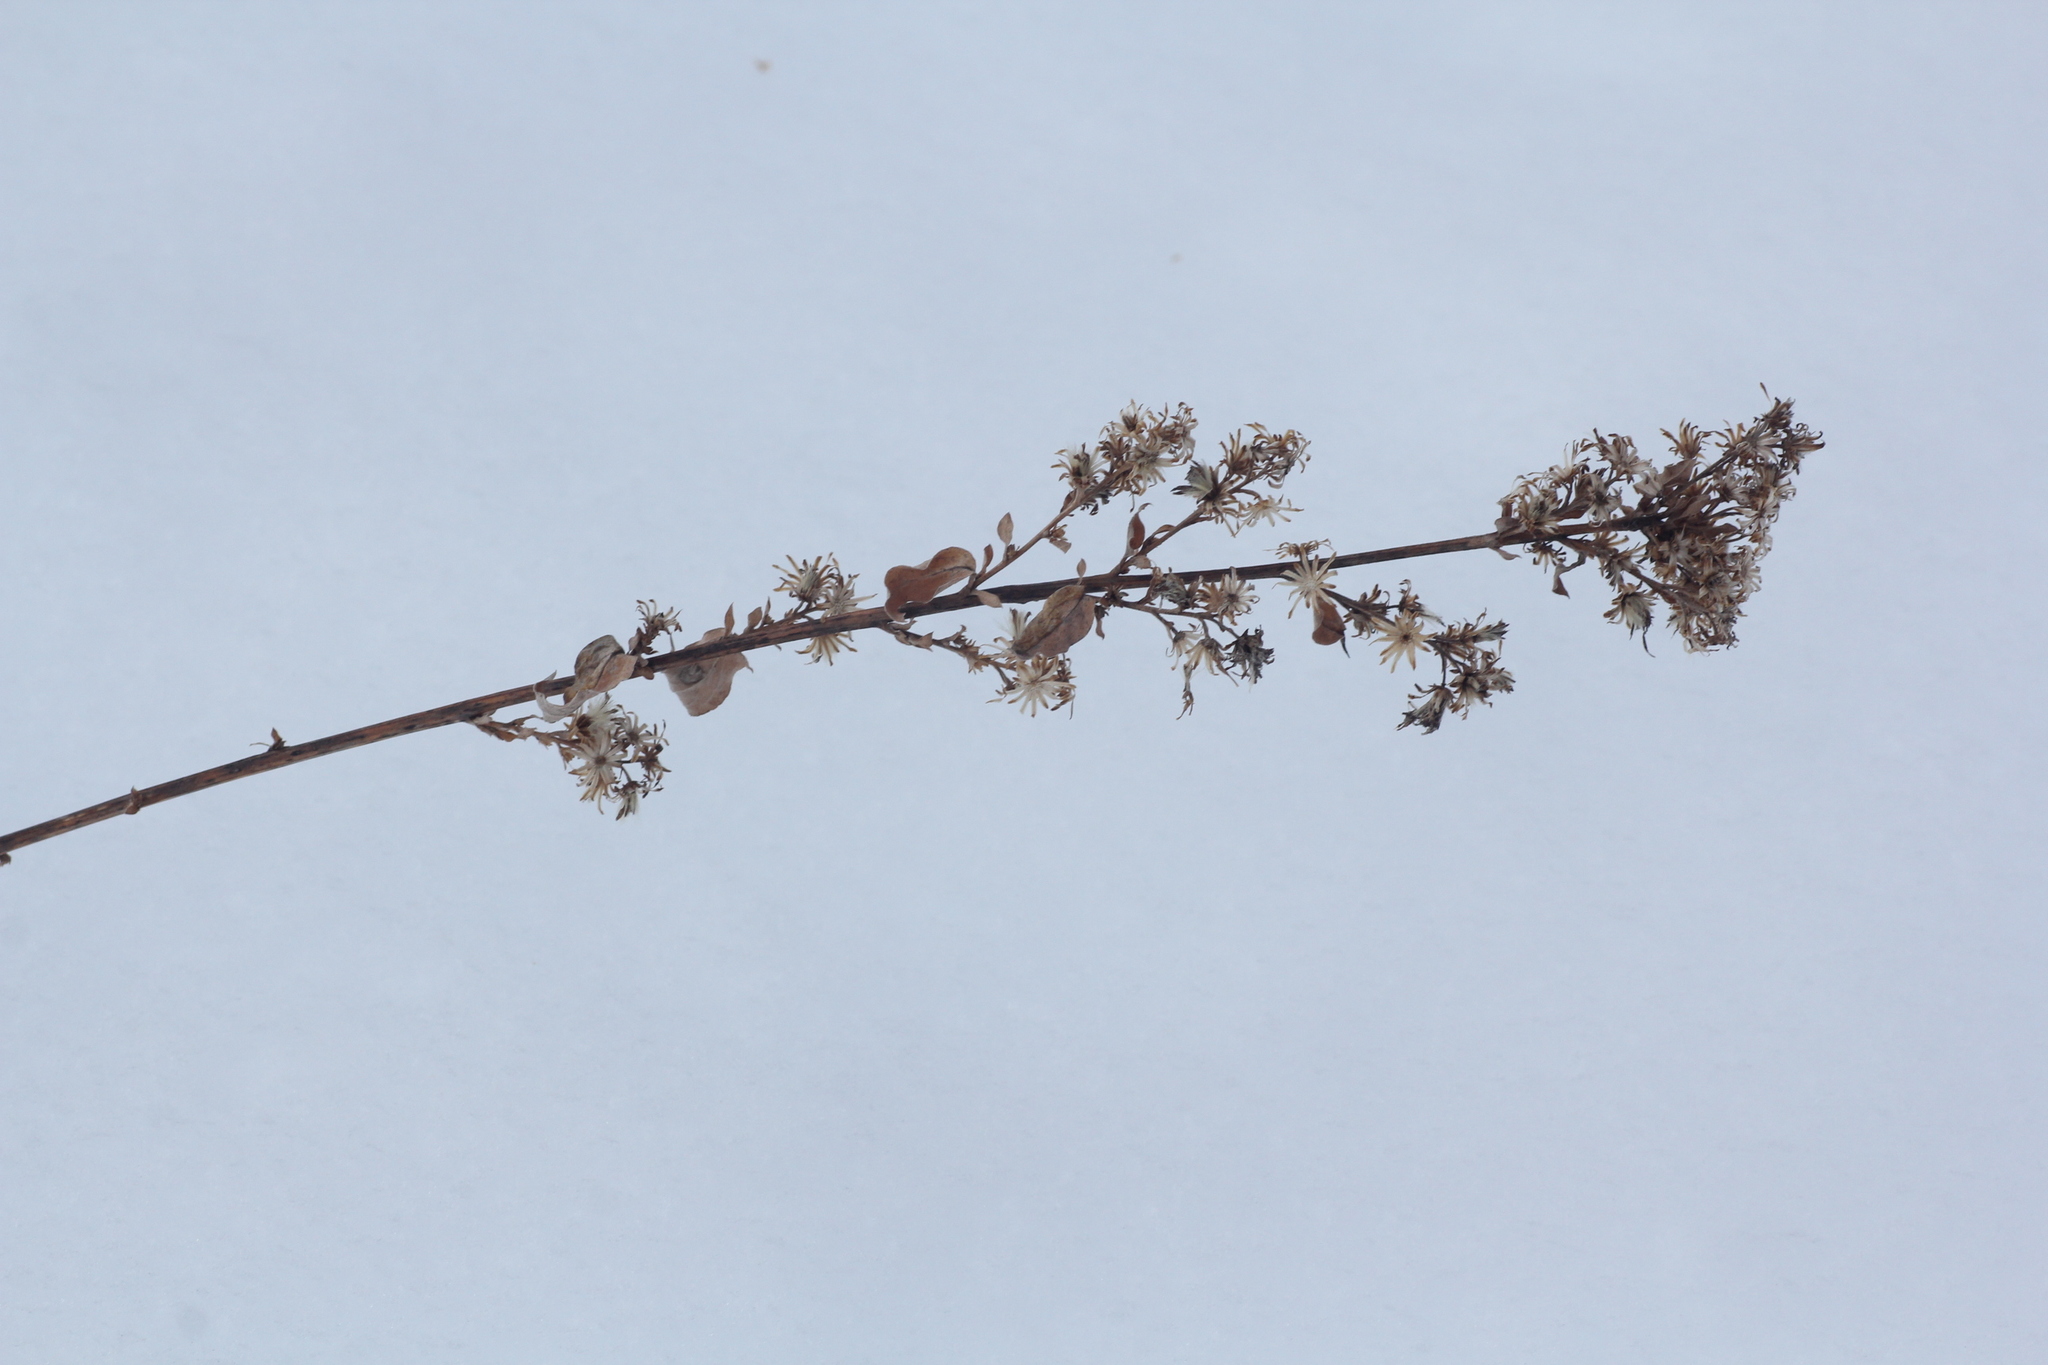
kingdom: Plantae
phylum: Tracheophyta
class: Magnoliopsida
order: Asterales
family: Asteraceae
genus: Solidago
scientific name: Solidago virgaurea
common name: Goldenrod
